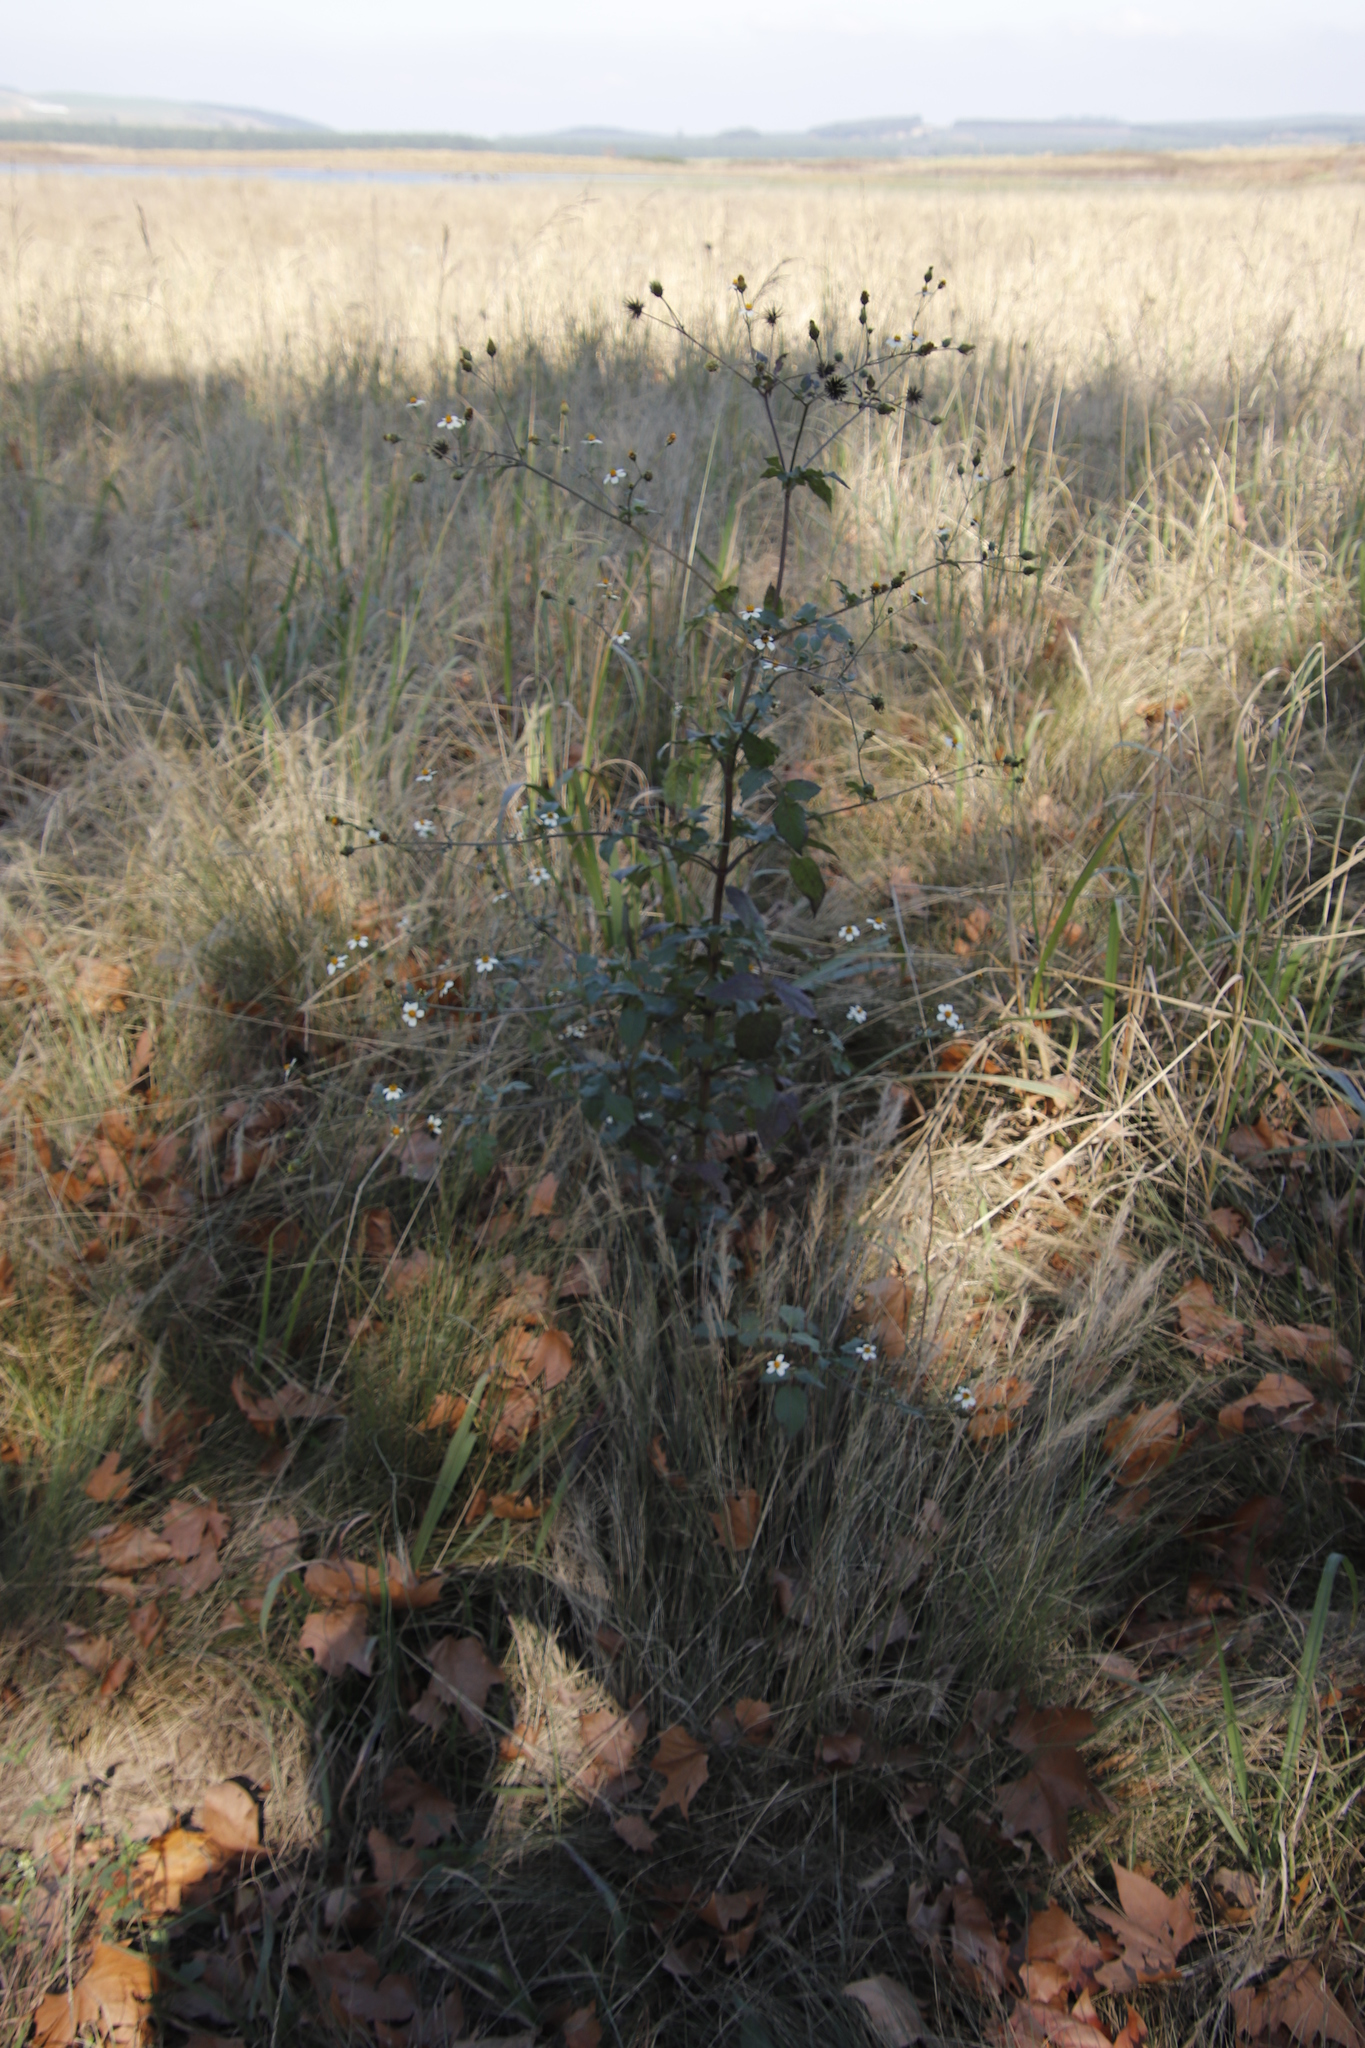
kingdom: Plantae
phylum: Tracheophyta
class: Magnoliopsida
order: Asterales
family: Asteraceae
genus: Bidens
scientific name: Bidens pilosa
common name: Black-jack
